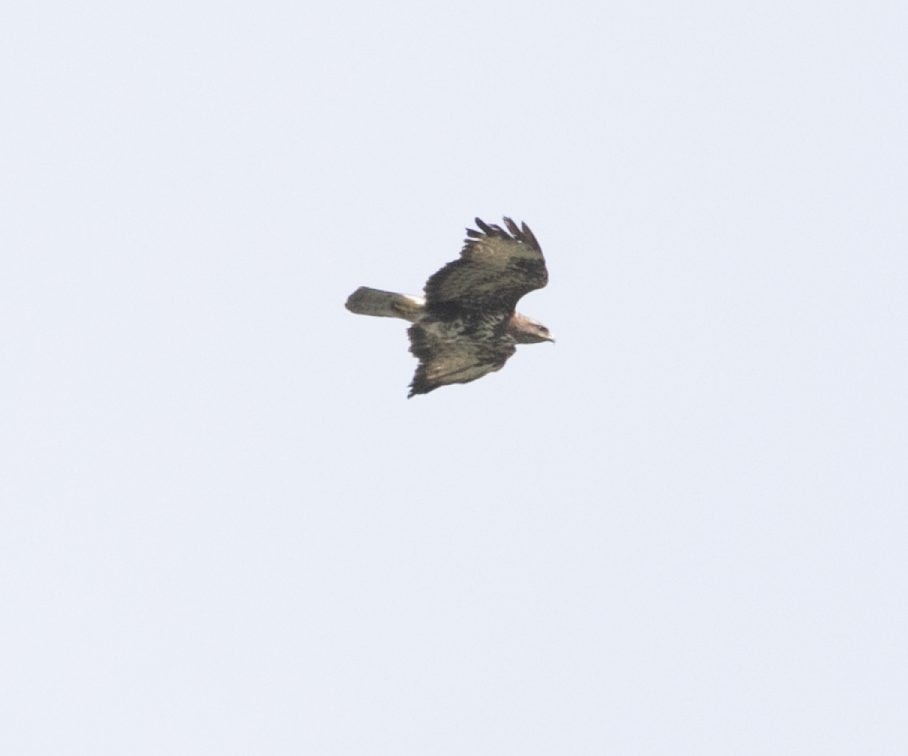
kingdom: Animalia
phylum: Chordata
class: Aves
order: Accipitriformes
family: Accipitridae
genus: Buteo
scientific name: Buteo buteo
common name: Common buzzard
